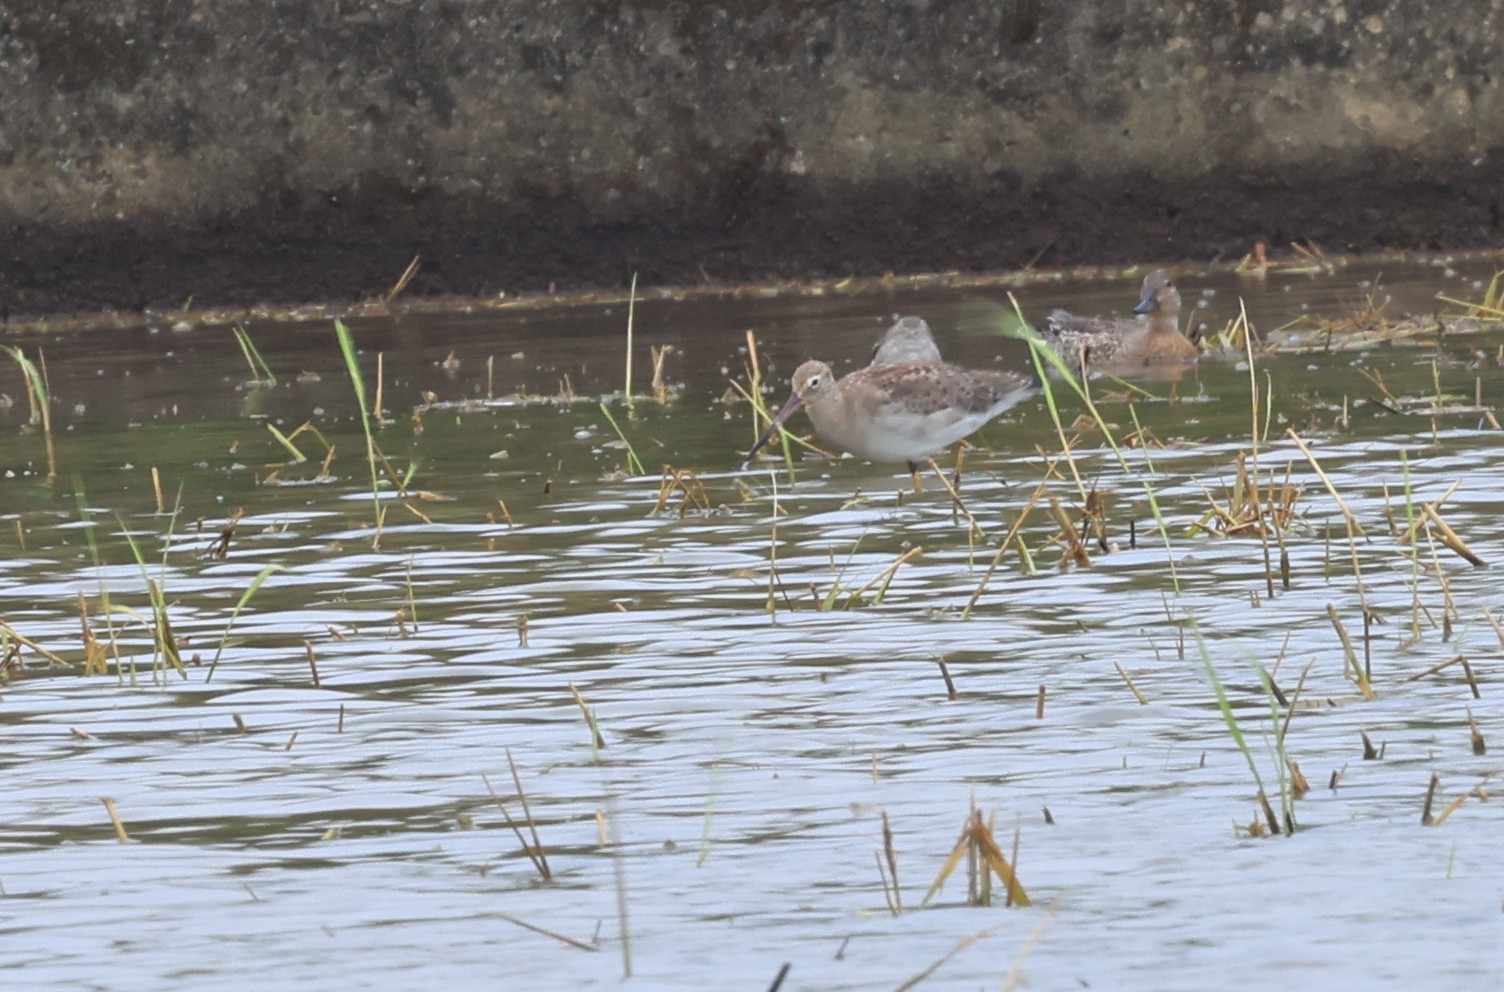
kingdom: Animalia
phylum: Chordata
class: Aves
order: Charadriiformes
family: Scolopacidae
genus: Limosa
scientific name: Limosa limosa
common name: Black-tailed godwit
